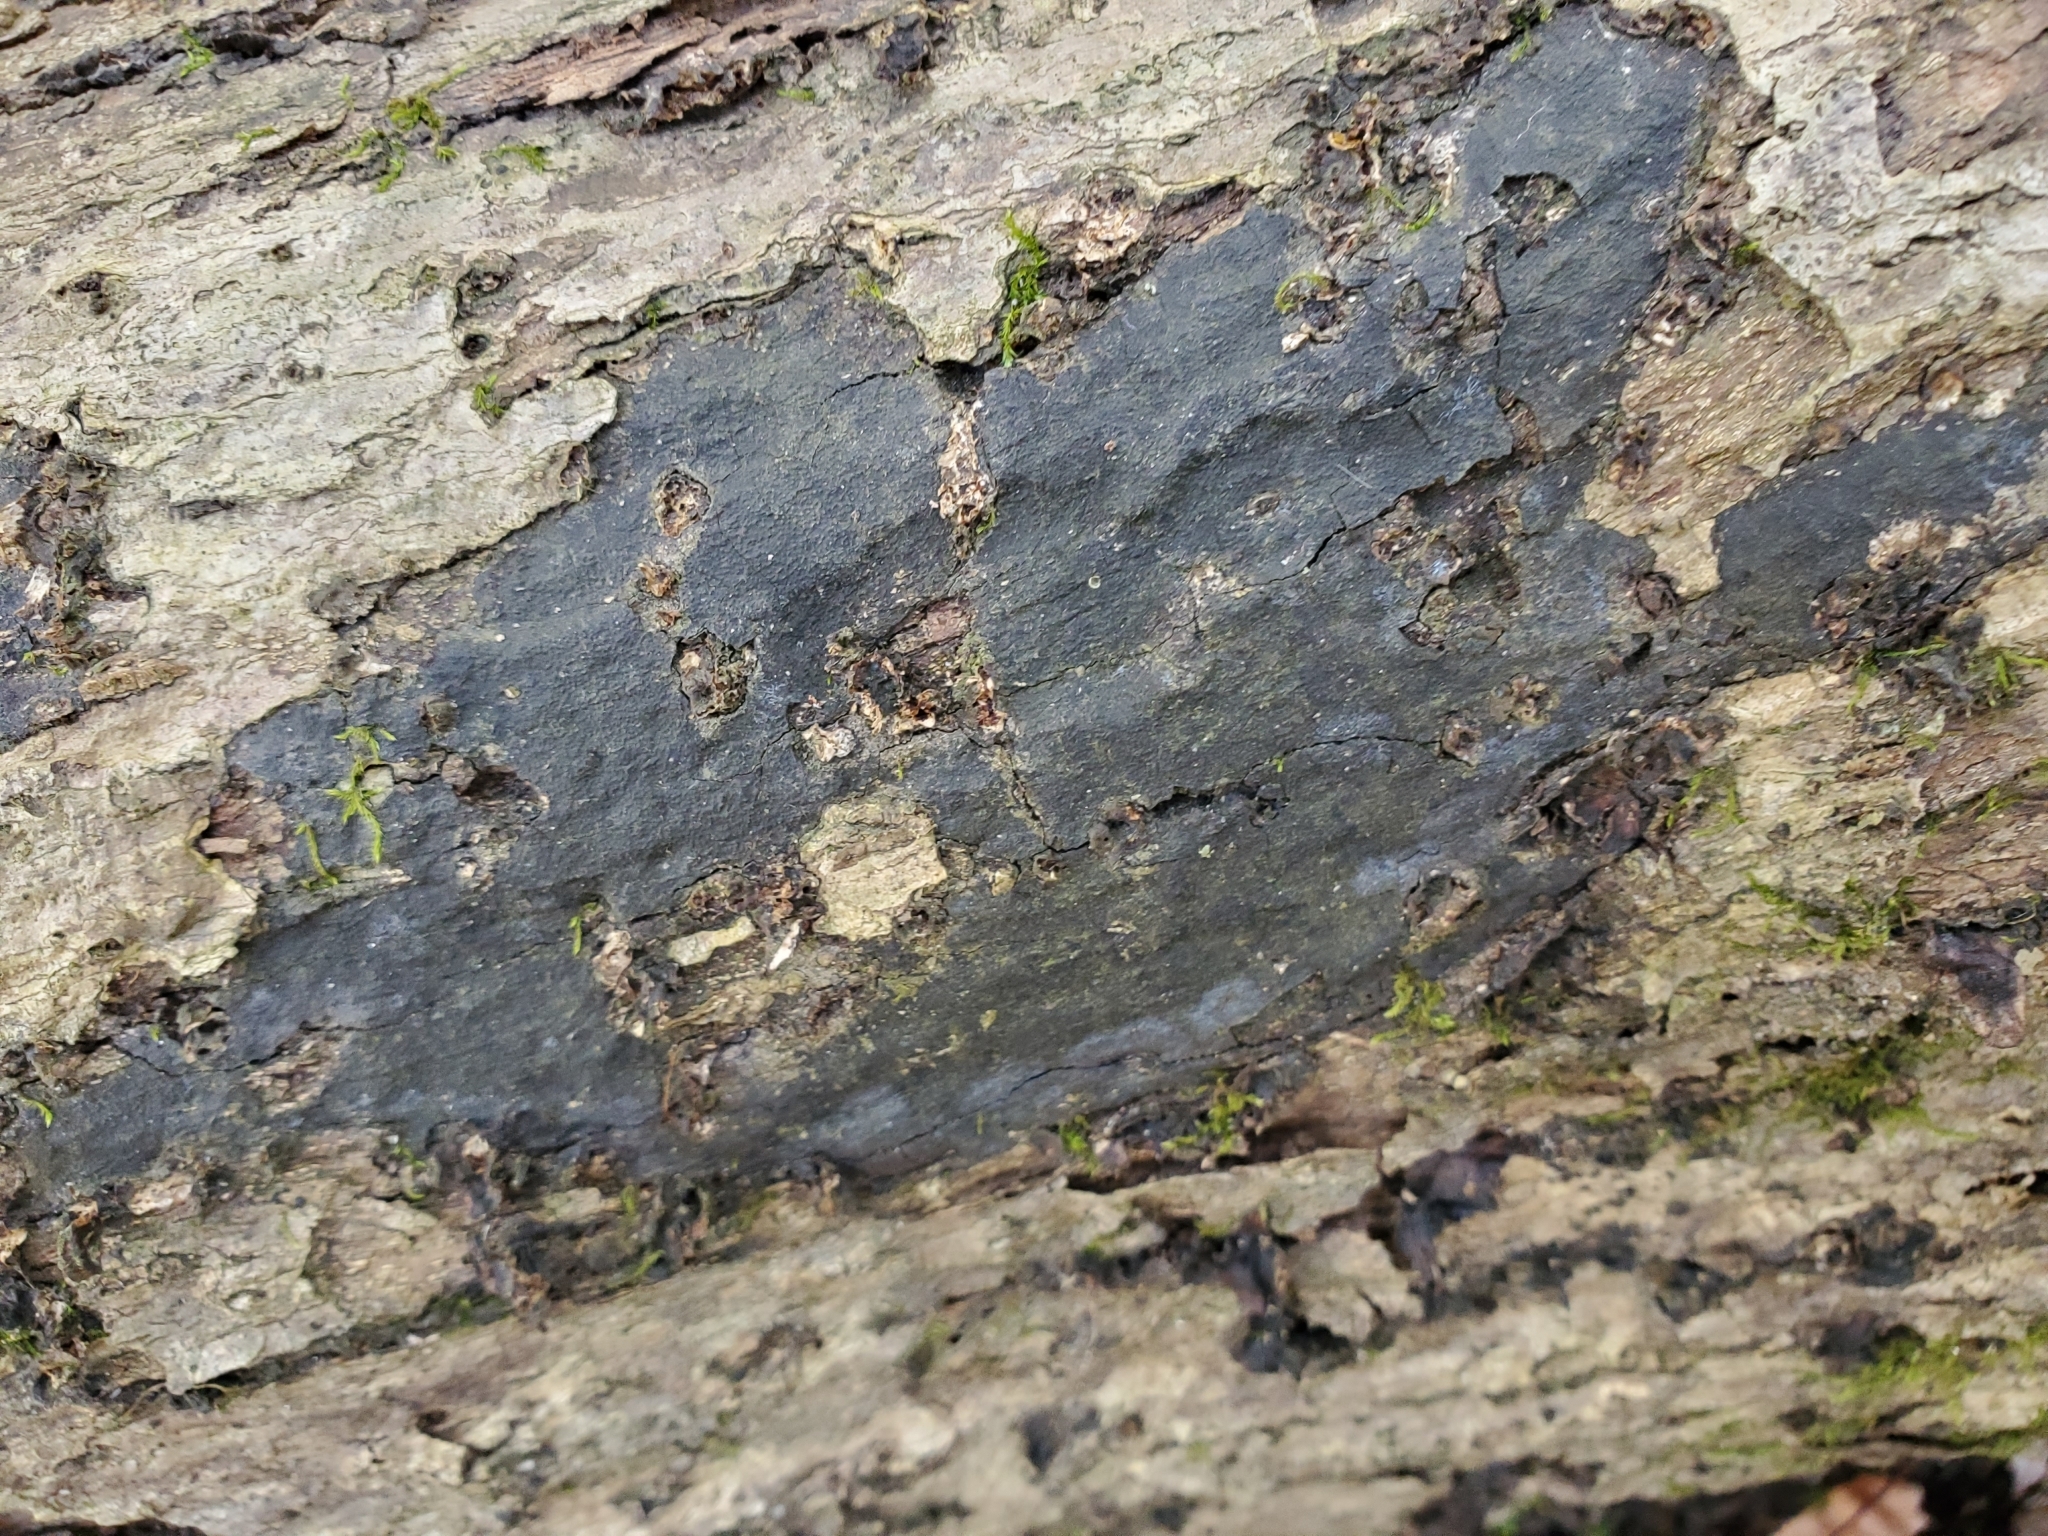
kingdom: Fungi
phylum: Ascomycota
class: Sordariomycetes
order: Xylariales
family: Diatrypaceae
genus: Diatrype
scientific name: Diatrype stigma
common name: Common tarcrust
